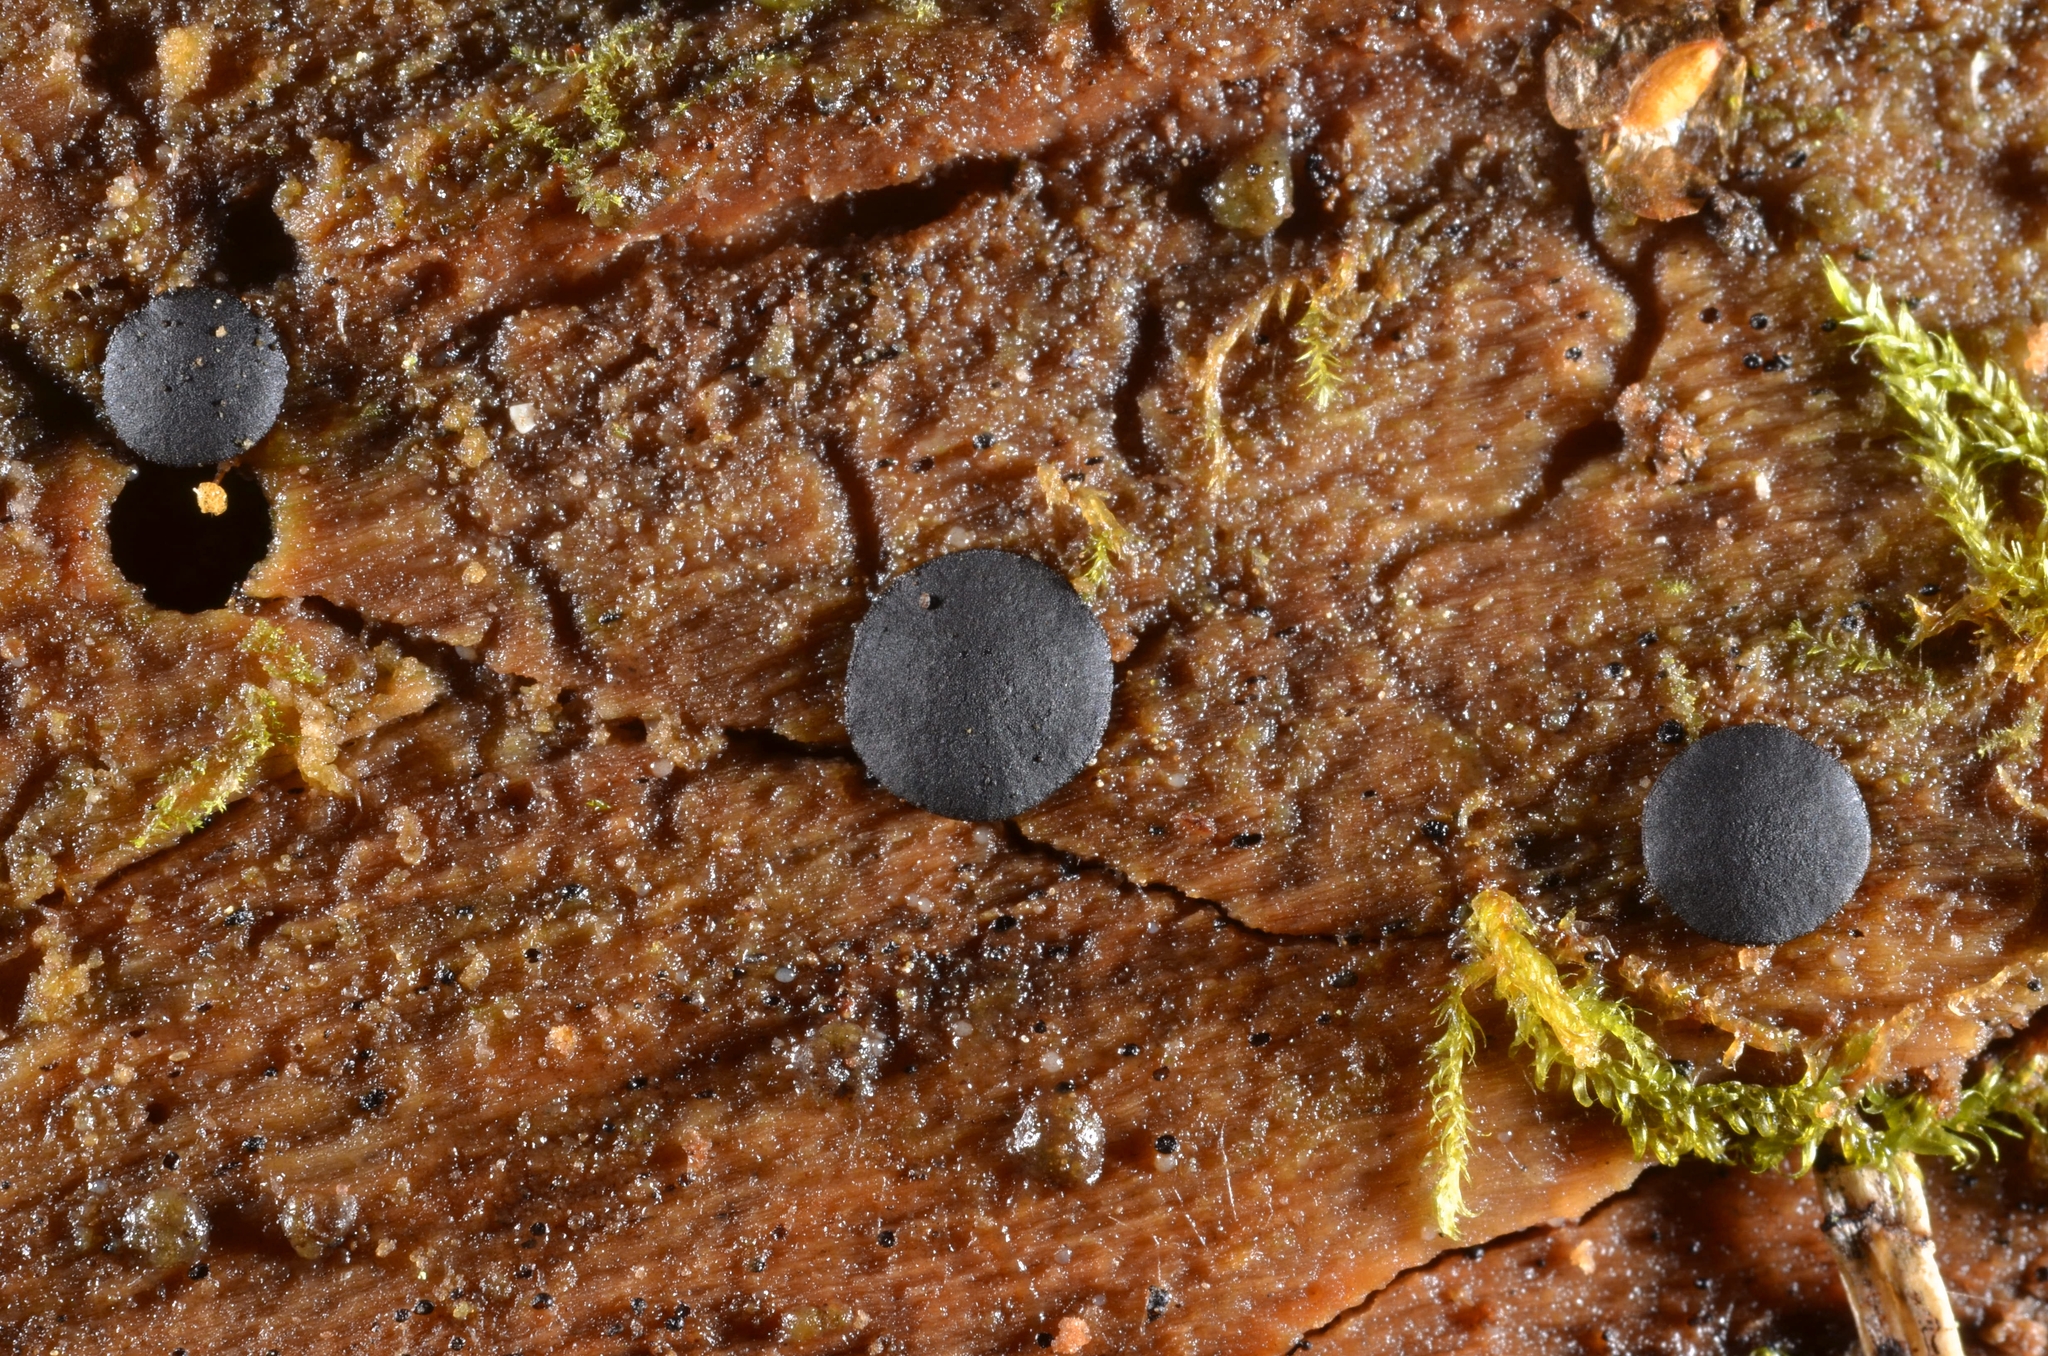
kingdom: Fungi
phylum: Ascomycota
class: Dothideomycetes
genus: Catinella
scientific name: Catinella olivacea
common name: Olive salver
